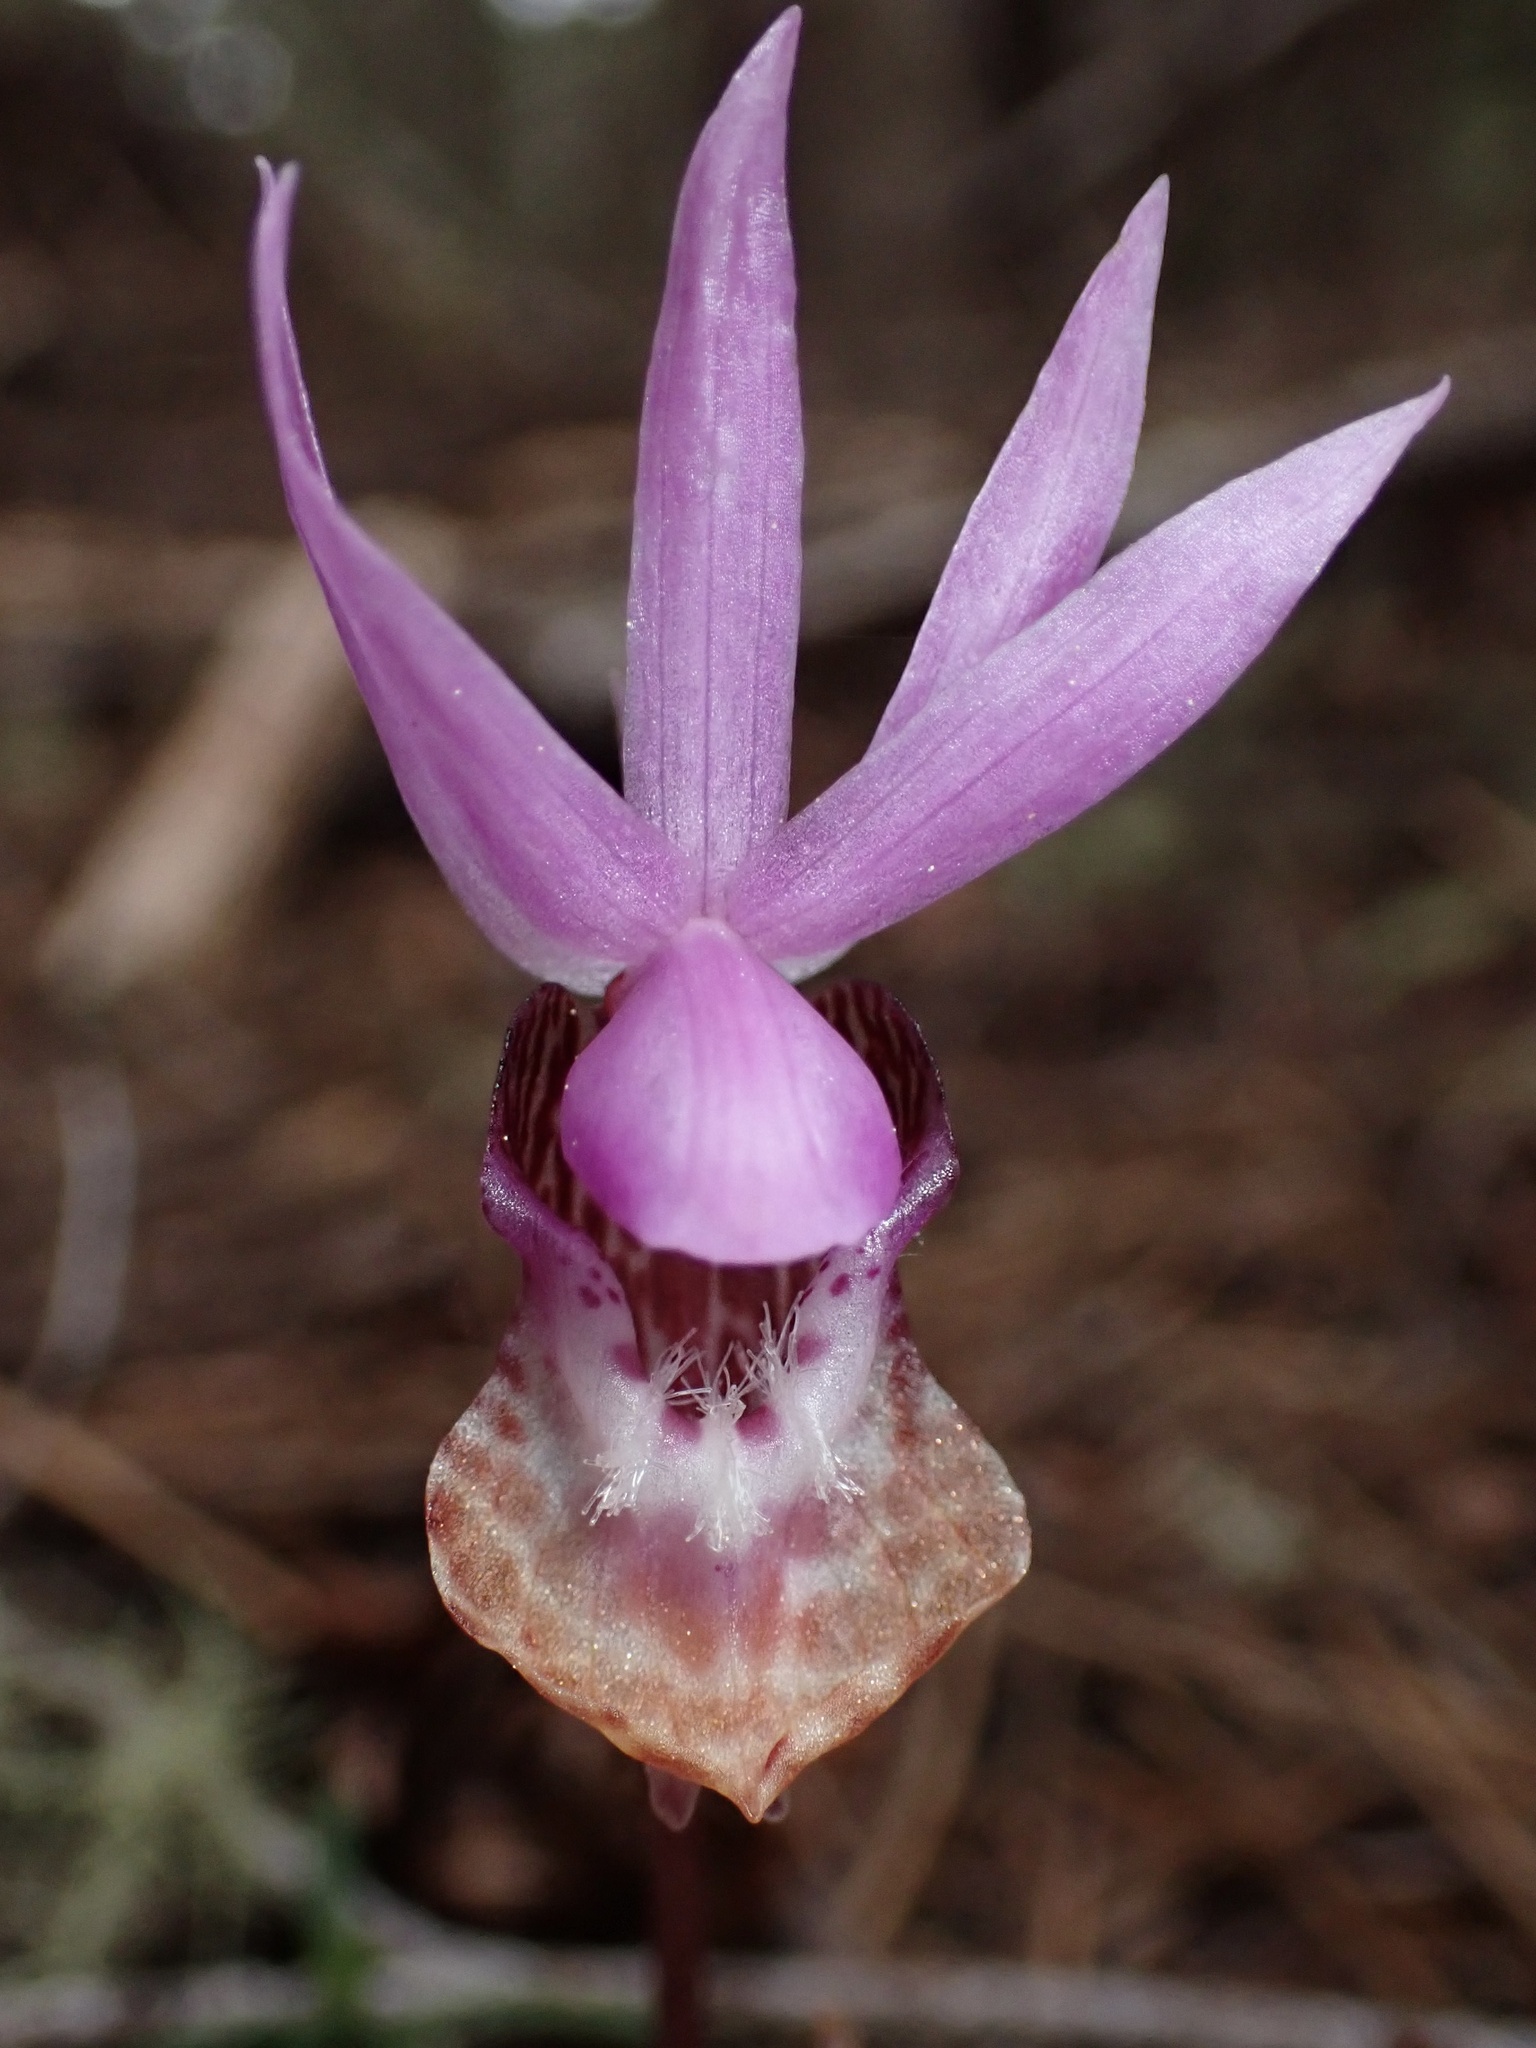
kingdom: Plantae
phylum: Tracheophyta
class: Liliopsida
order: Asparagales
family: Orchidaceae
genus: Calypso
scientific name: Calypso bulbosa
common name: Calypso
